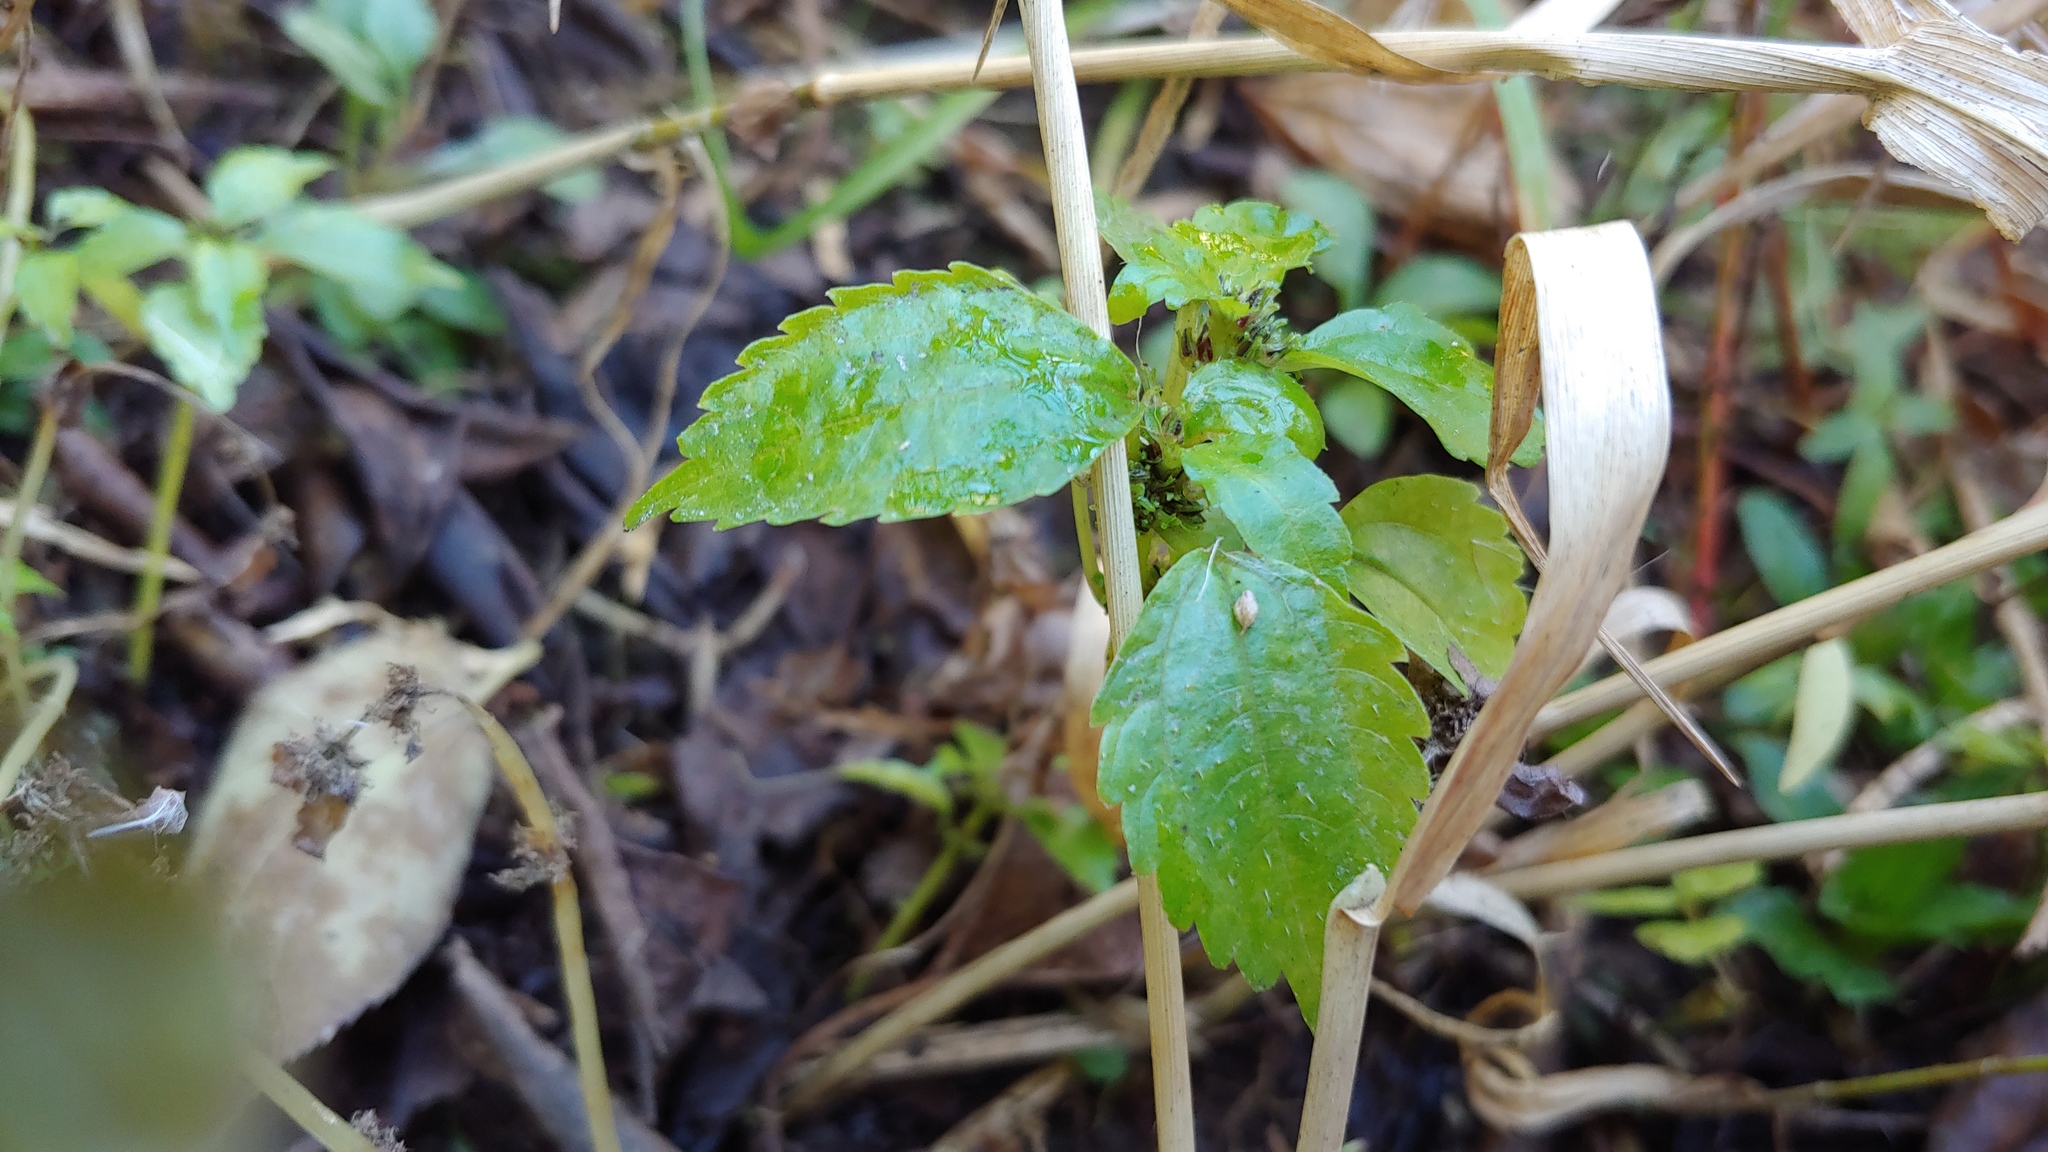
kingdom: Plantae
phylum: Tracheophyta
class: Magnoliopsida
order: Rosales
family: Urticaceae
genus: Pilea
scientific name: Pilea fontana
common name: Clearweed
